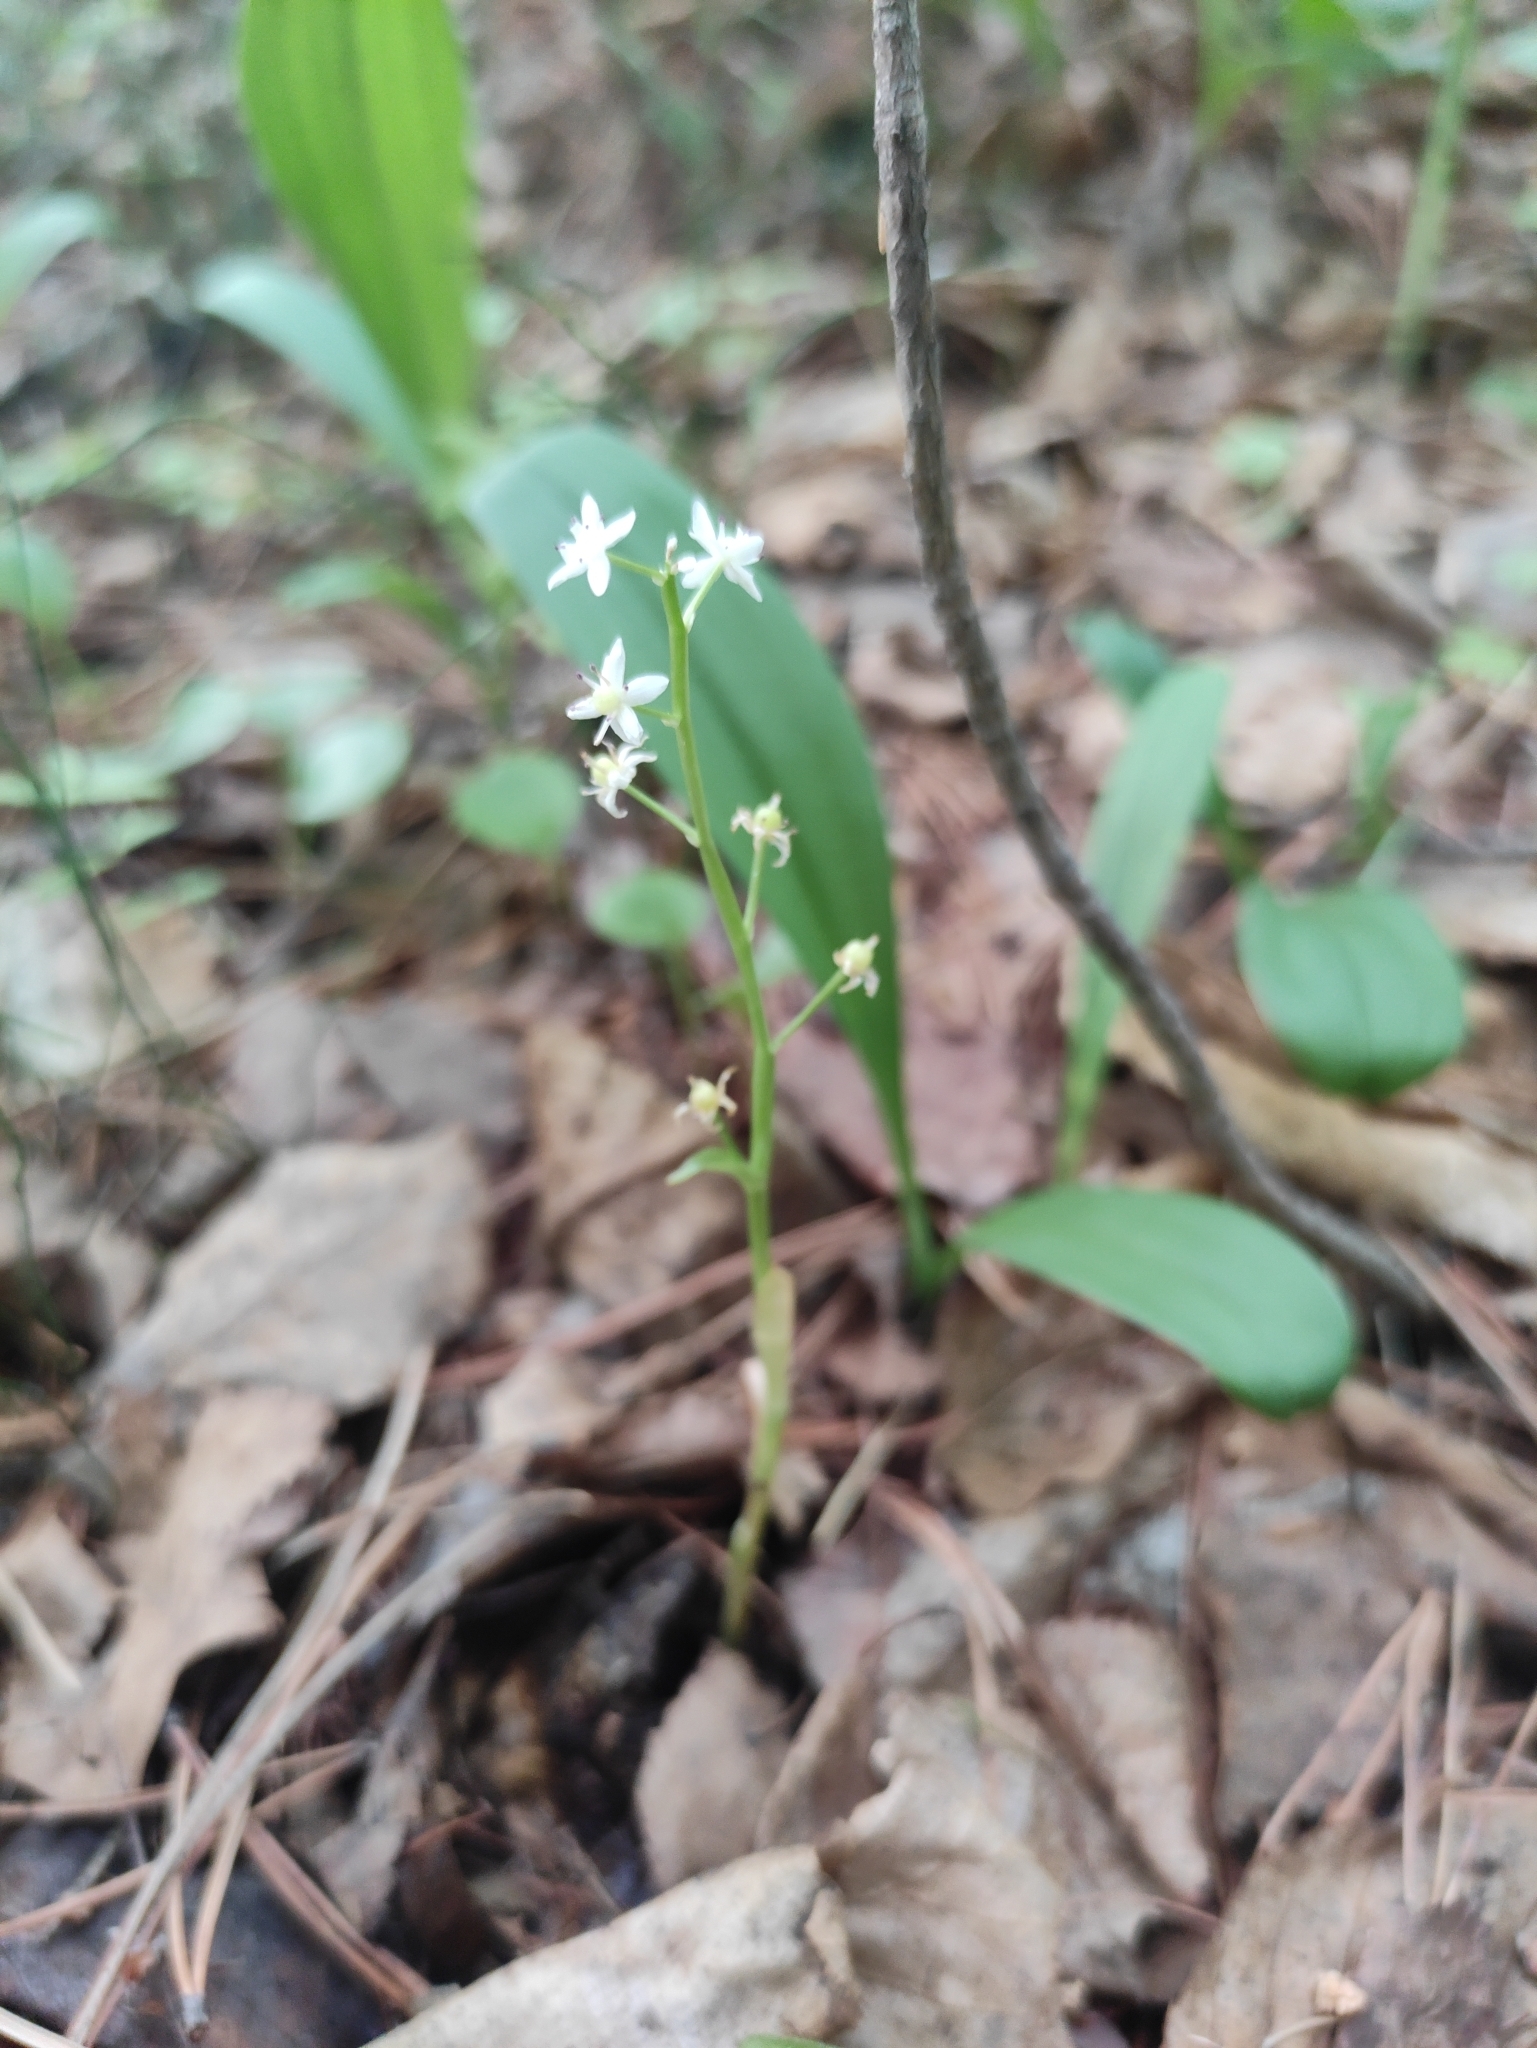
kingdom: Plantae
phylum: Tracheophyta
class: Liliopsida
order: Asparagales
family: Asparagaceae
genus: Maianthemum
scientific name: Maianthemum trifolium
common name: Swamp false solomon's seal
